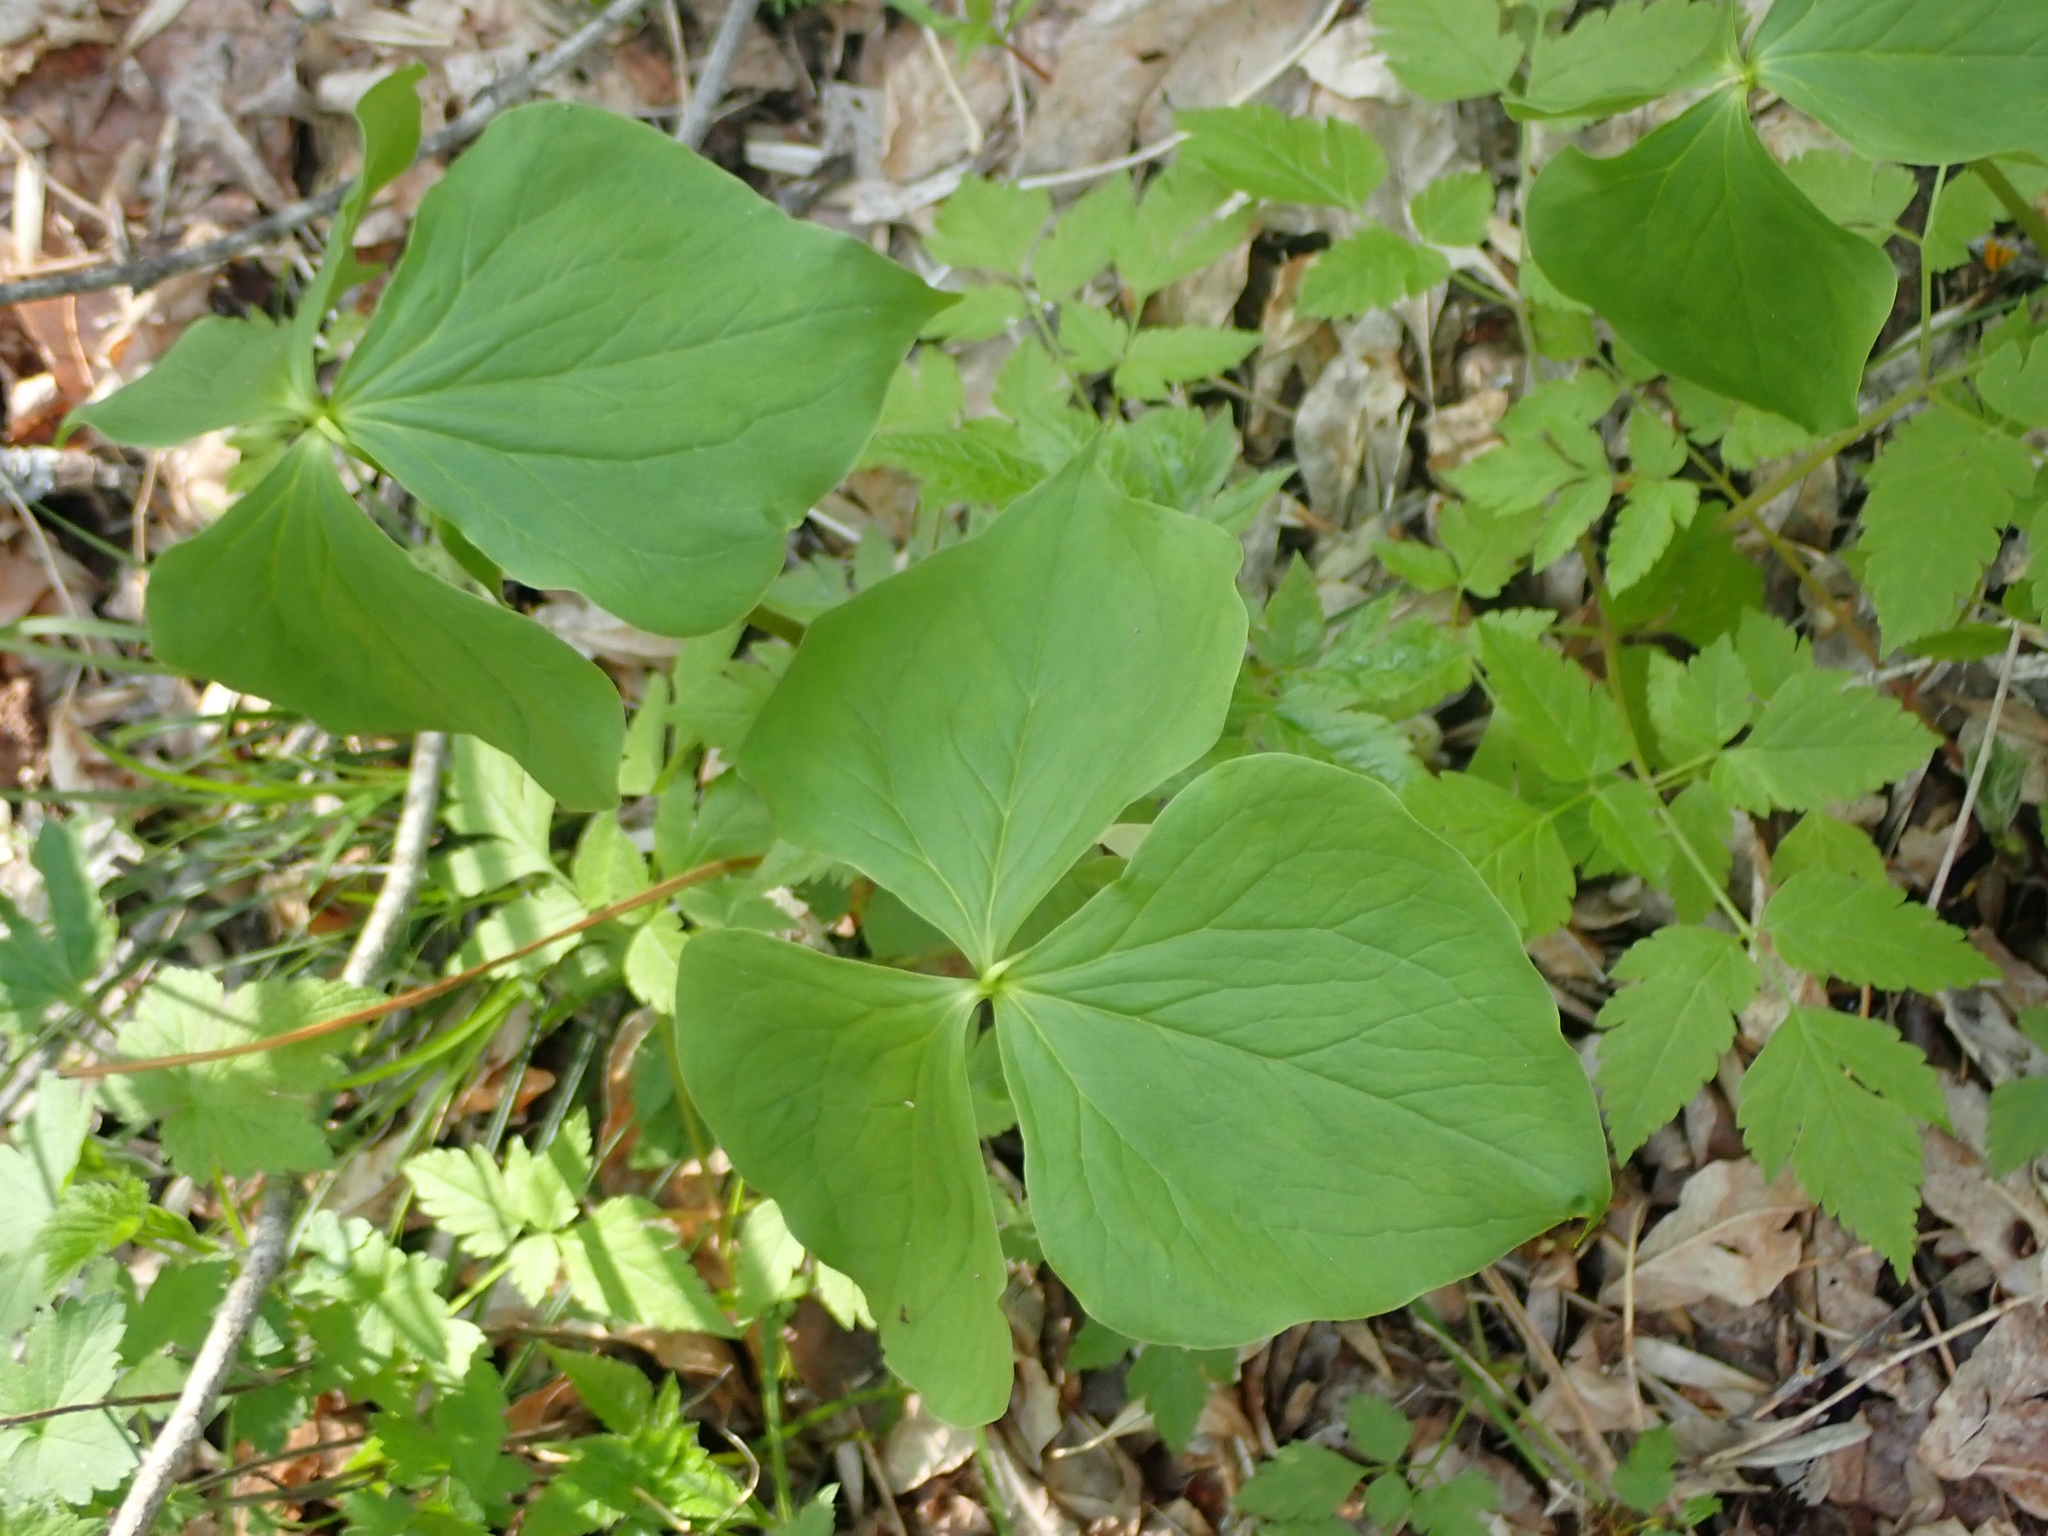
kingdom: Plantae
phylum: Tracheophyta
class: Liliopsida
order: Liliales
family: Melanthiaceae
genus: Trillium
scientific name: Trillium cernuum
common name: Nodding trillium
